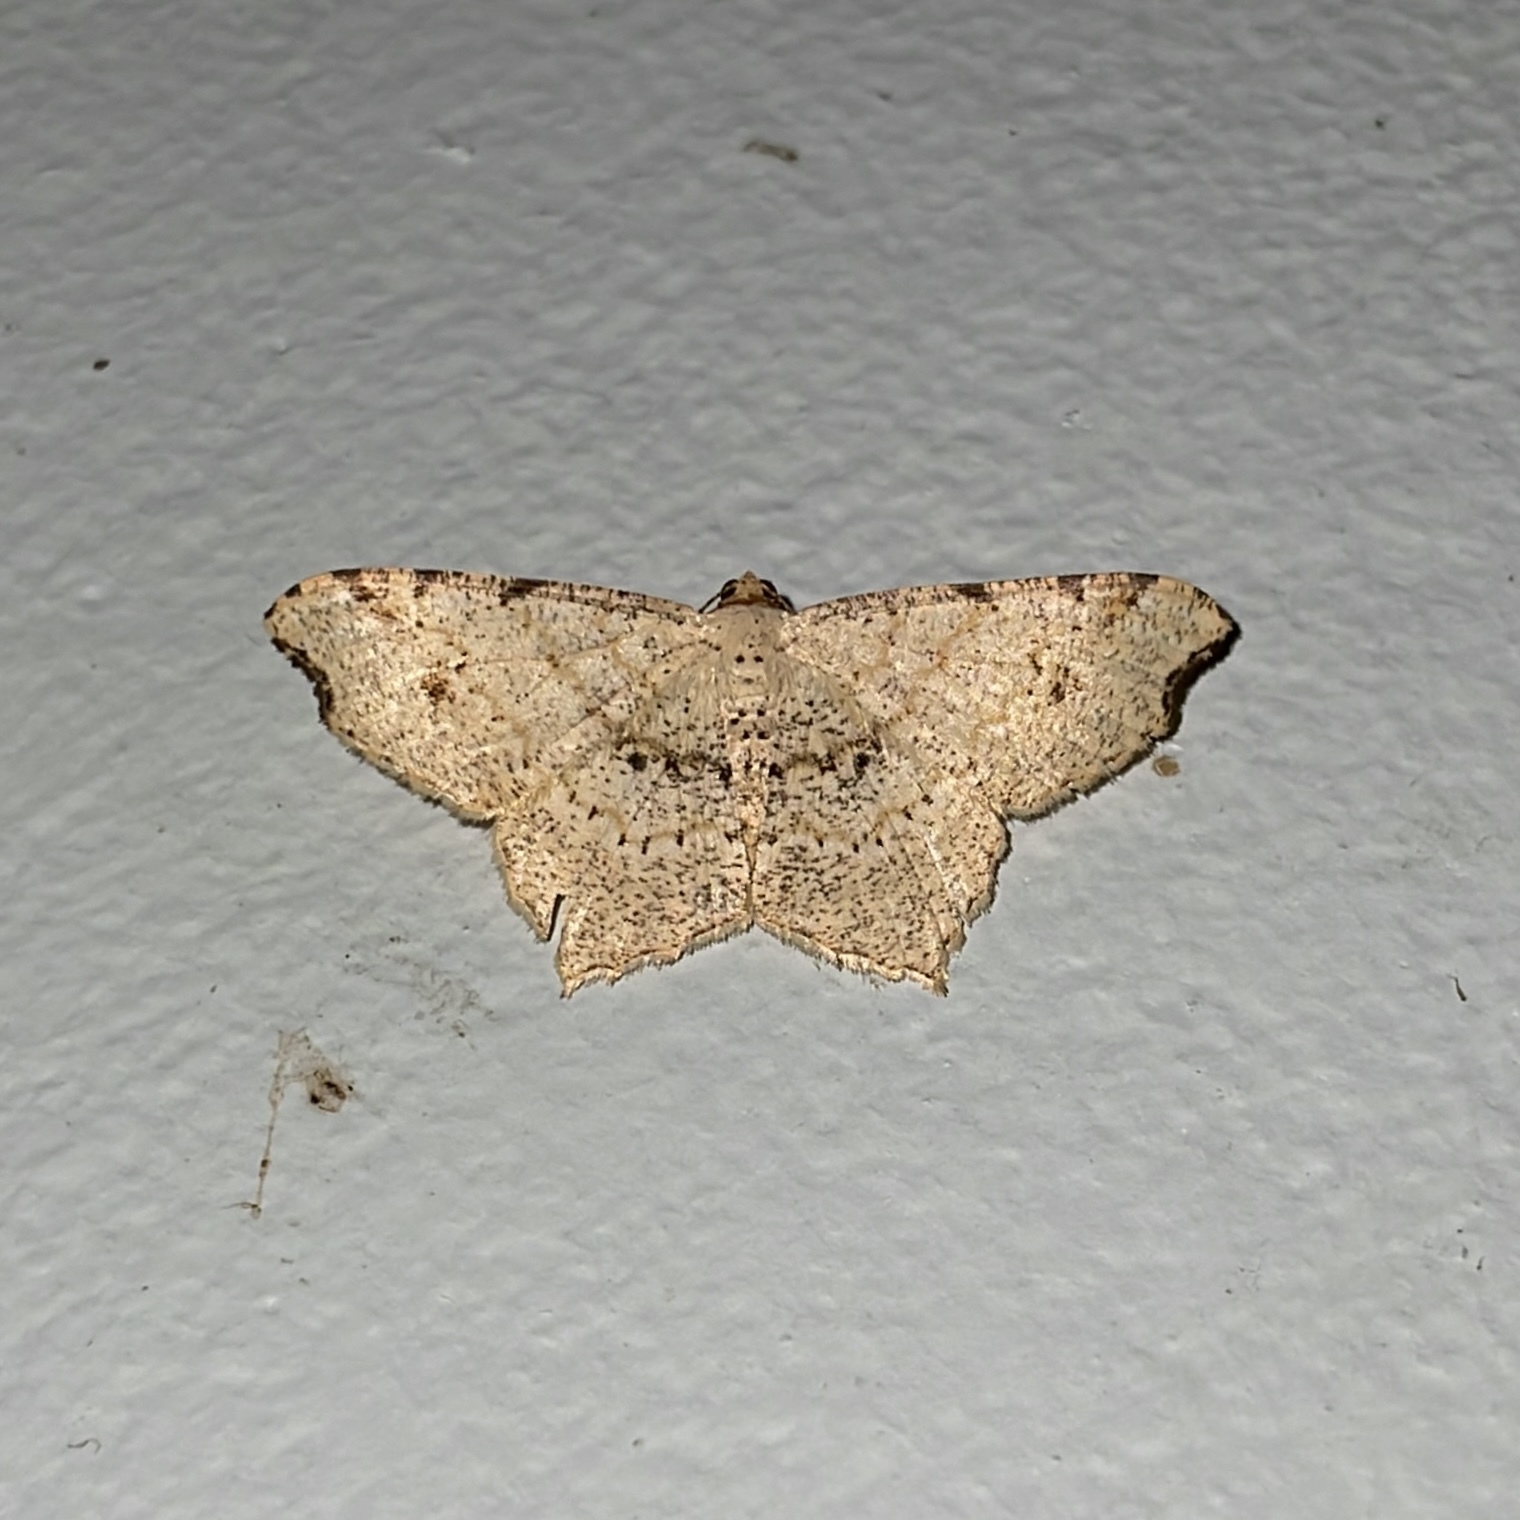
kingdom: Animalia
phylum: Arthropoda
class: Insecta
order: Lepidoptera
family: Geometridae
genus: Macaria
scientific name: Macaria rigidata
